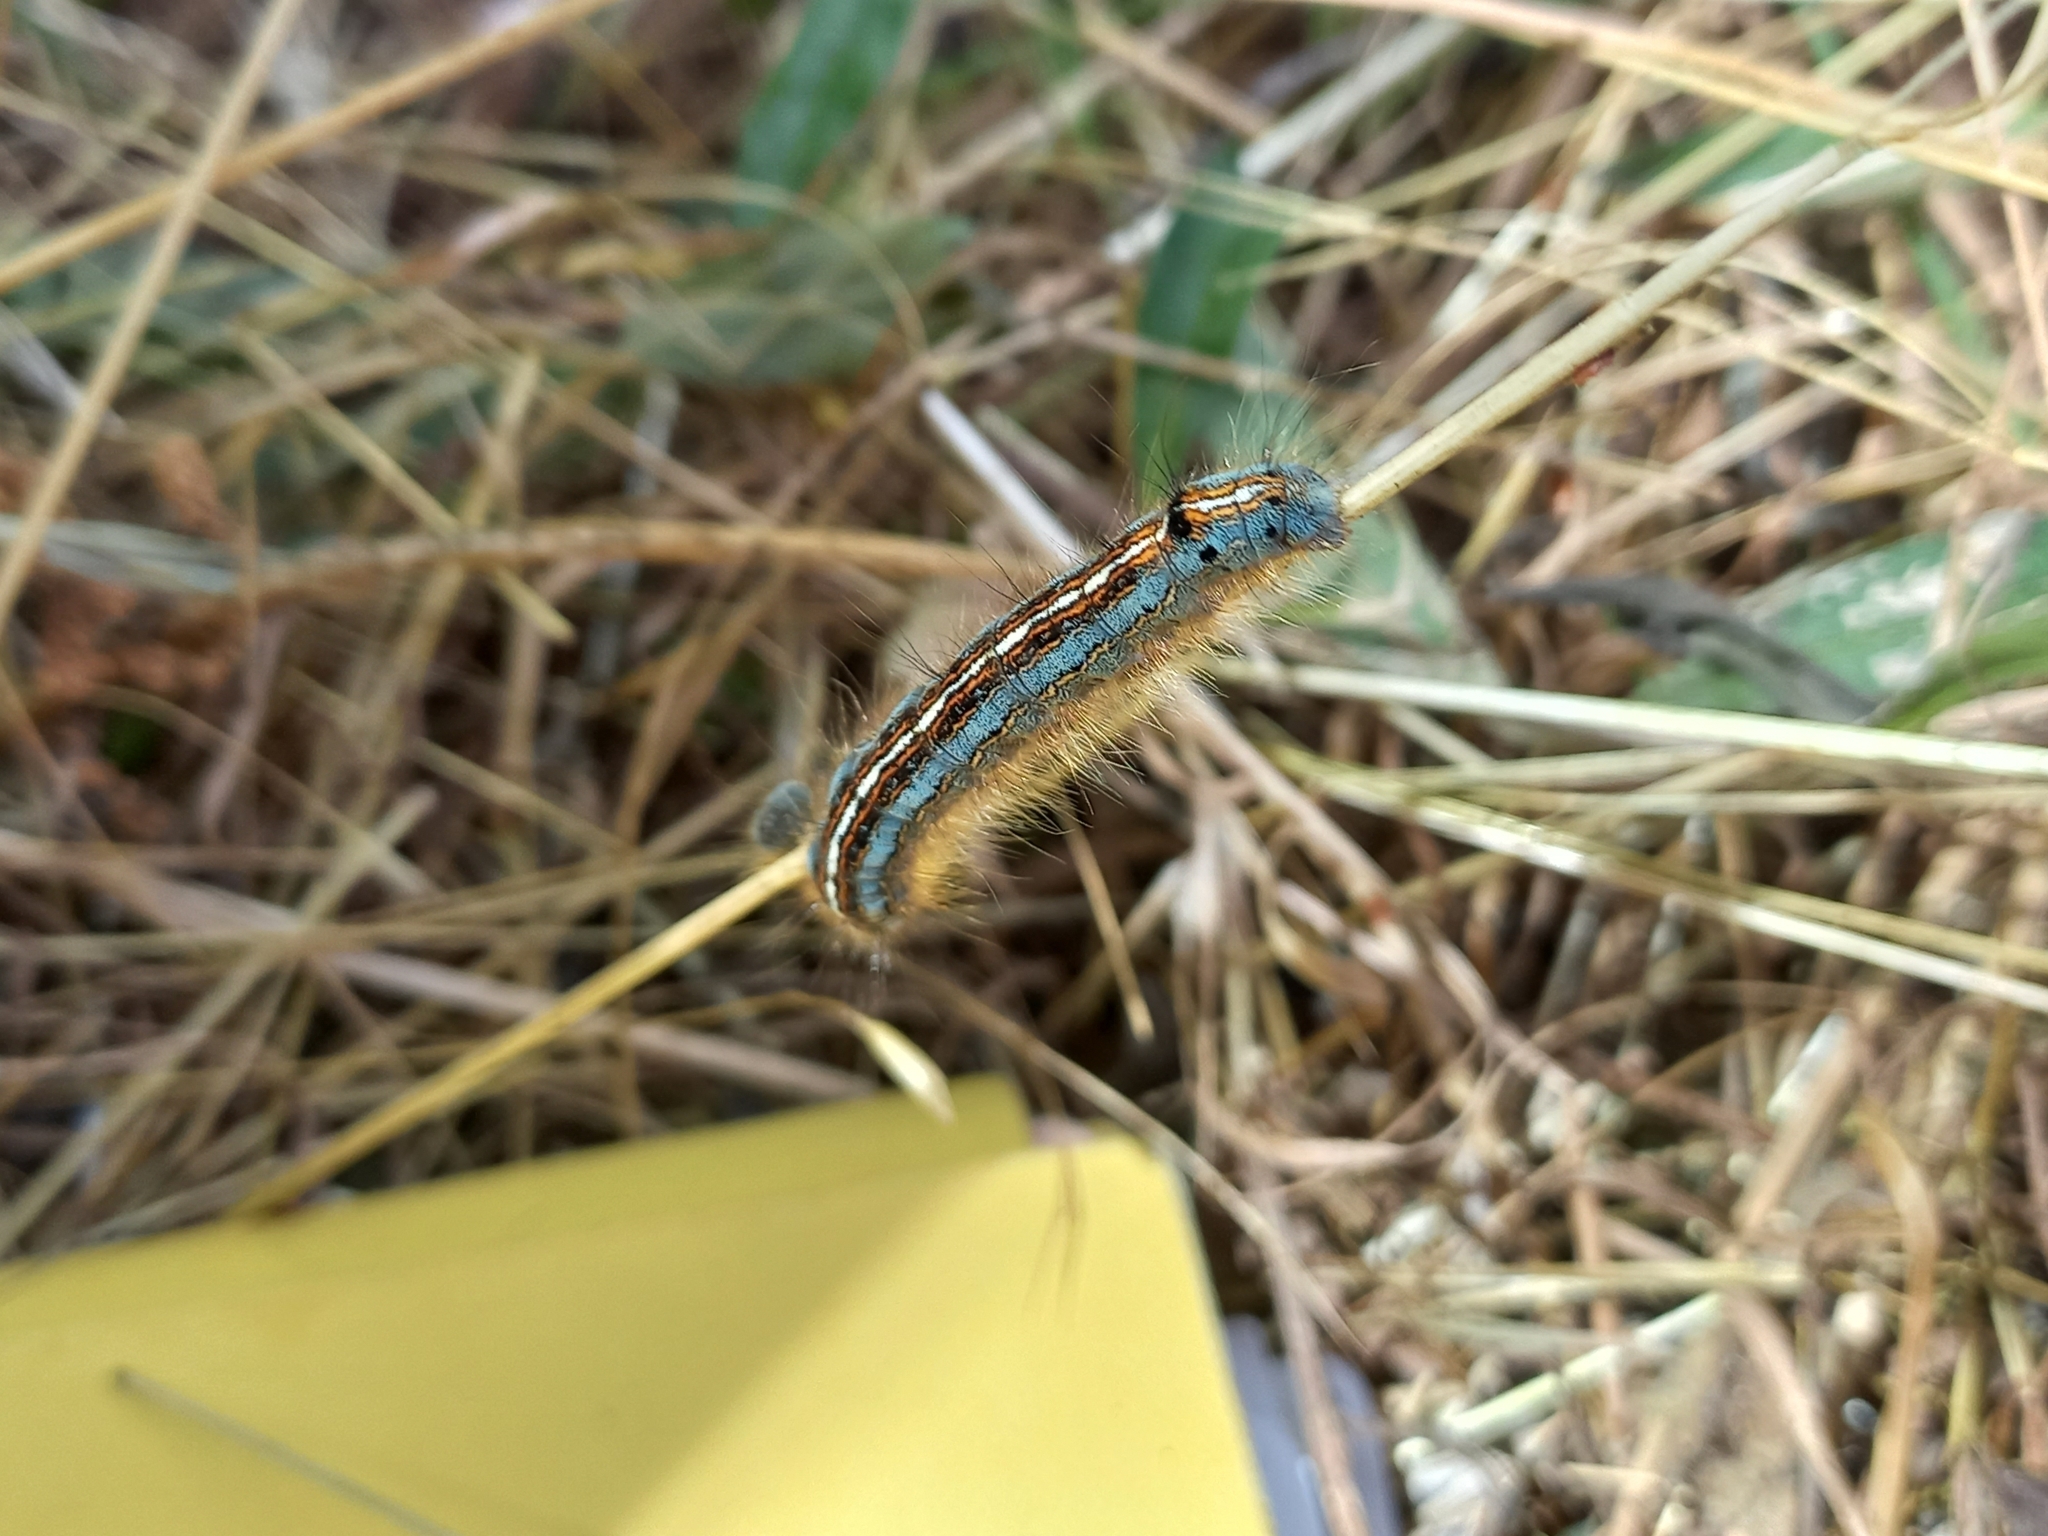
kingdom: Animalia
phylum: Arthropoda
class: Insecta
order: Lepidoptera
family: Lasiocampidae
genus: Malacosoma
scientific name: Malacosoma neustria
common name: The lackey
